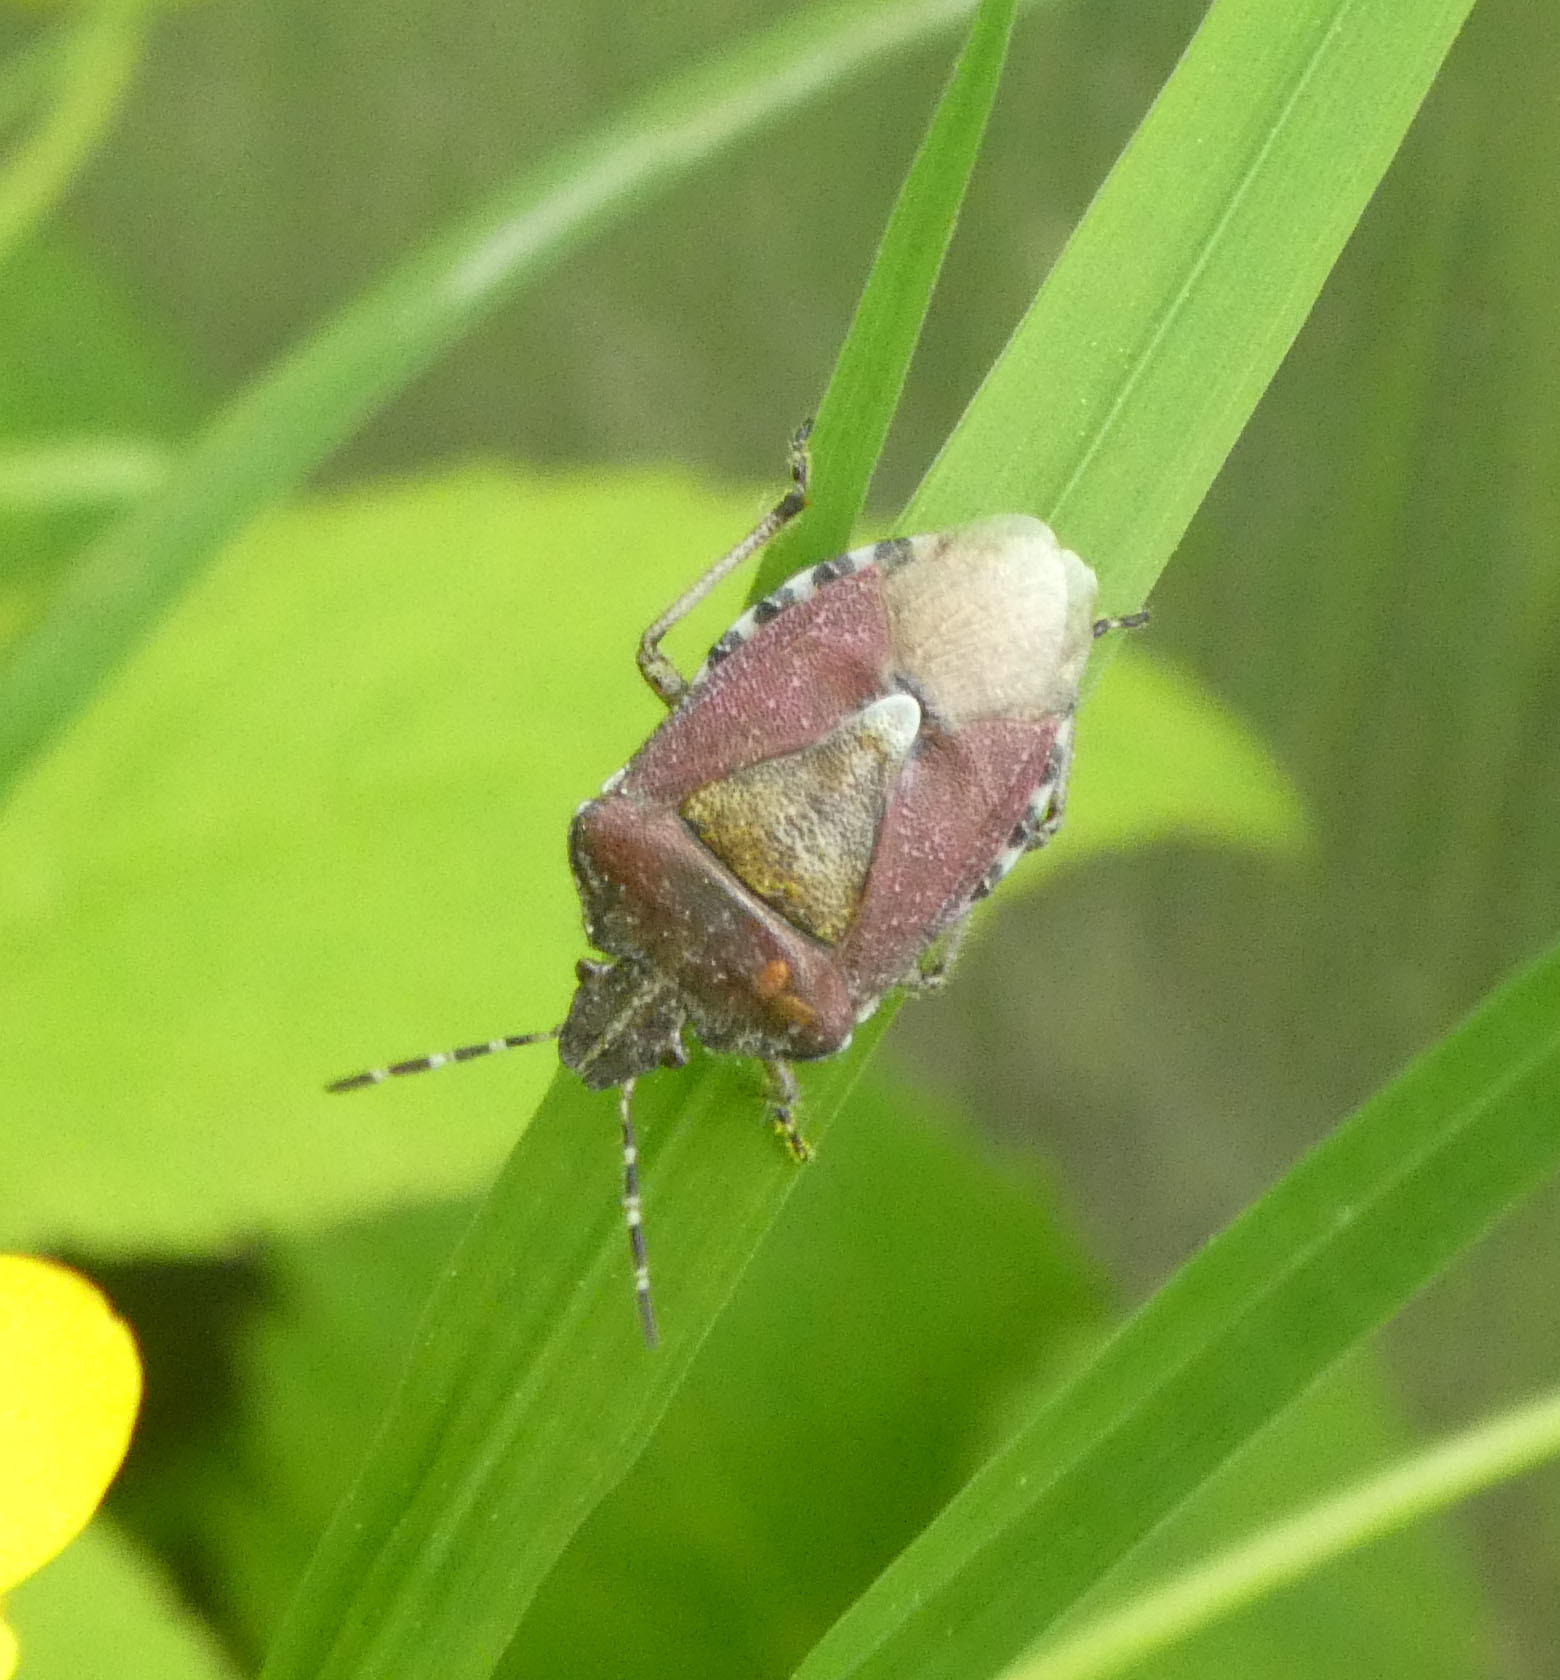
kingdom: Animalia
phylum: Arthropoda
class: Insecta
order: Hemiptera
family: Pentatomidae
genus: Dolycoris
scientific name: Dolycoris baccarum
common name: Sloe bug
